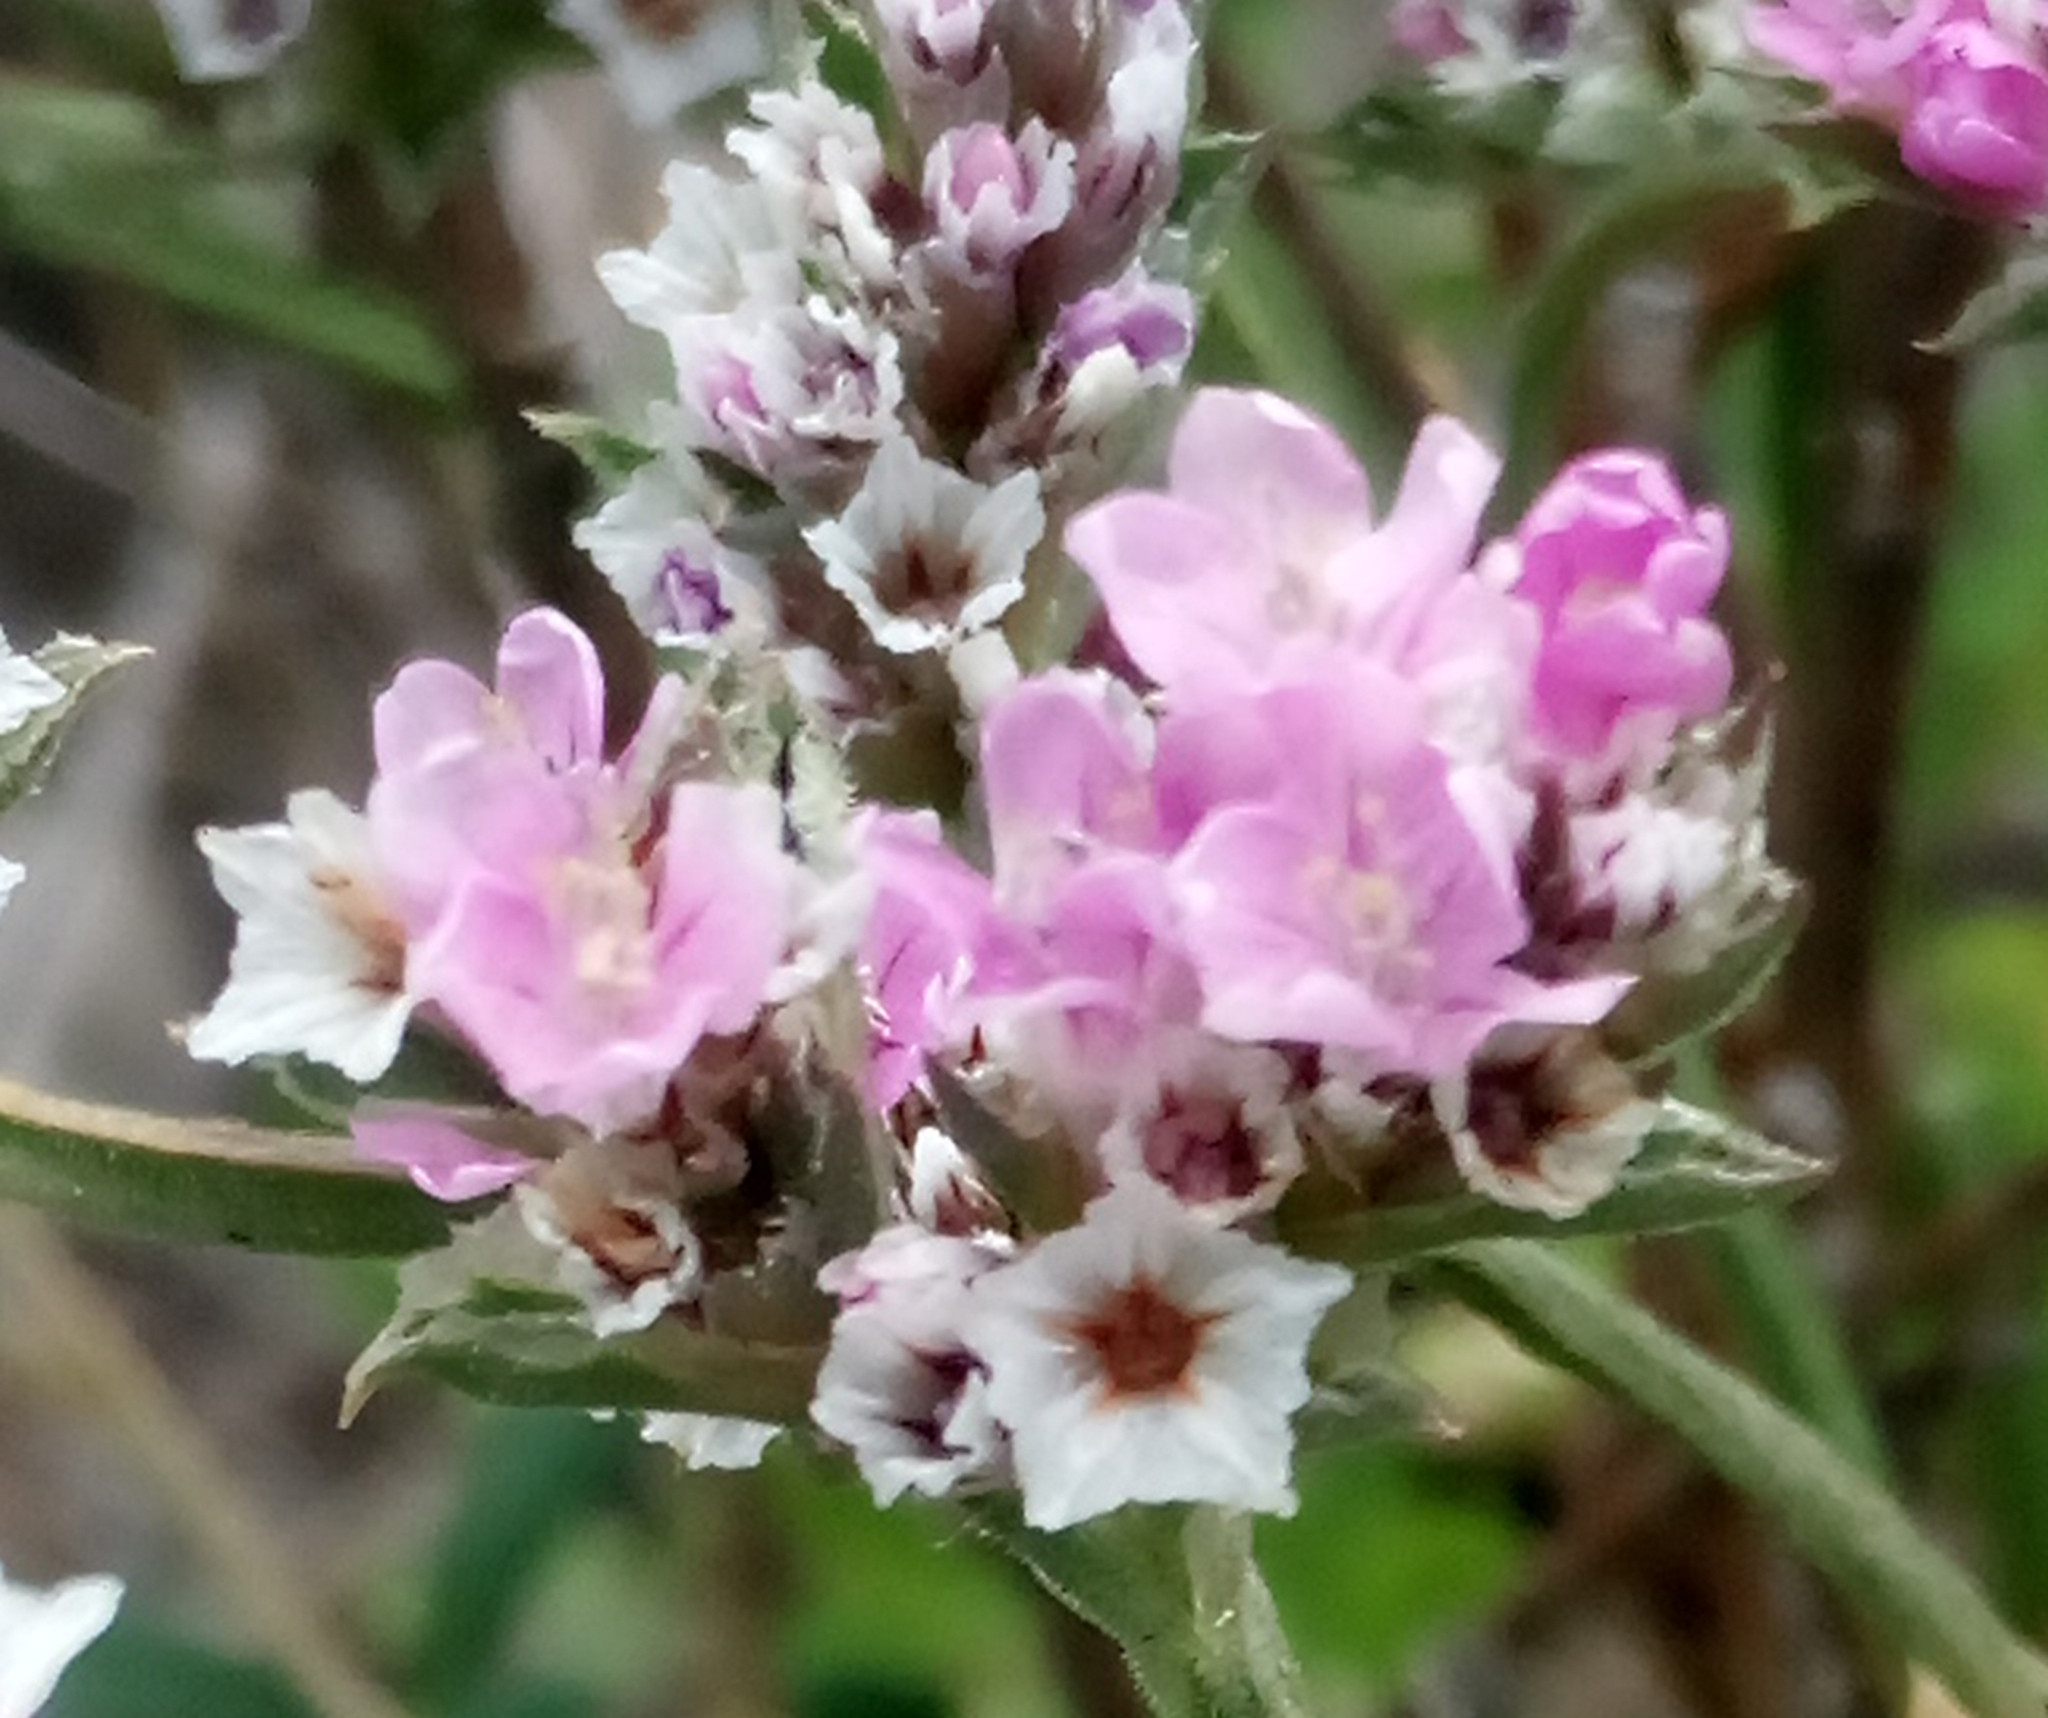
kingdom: Plantae
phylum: Tracheophyta
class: Magnoliopsida
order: Caryophyllales
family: Plumbaginaceae
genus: Goniolimon
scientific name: Goniolimon speciosum
